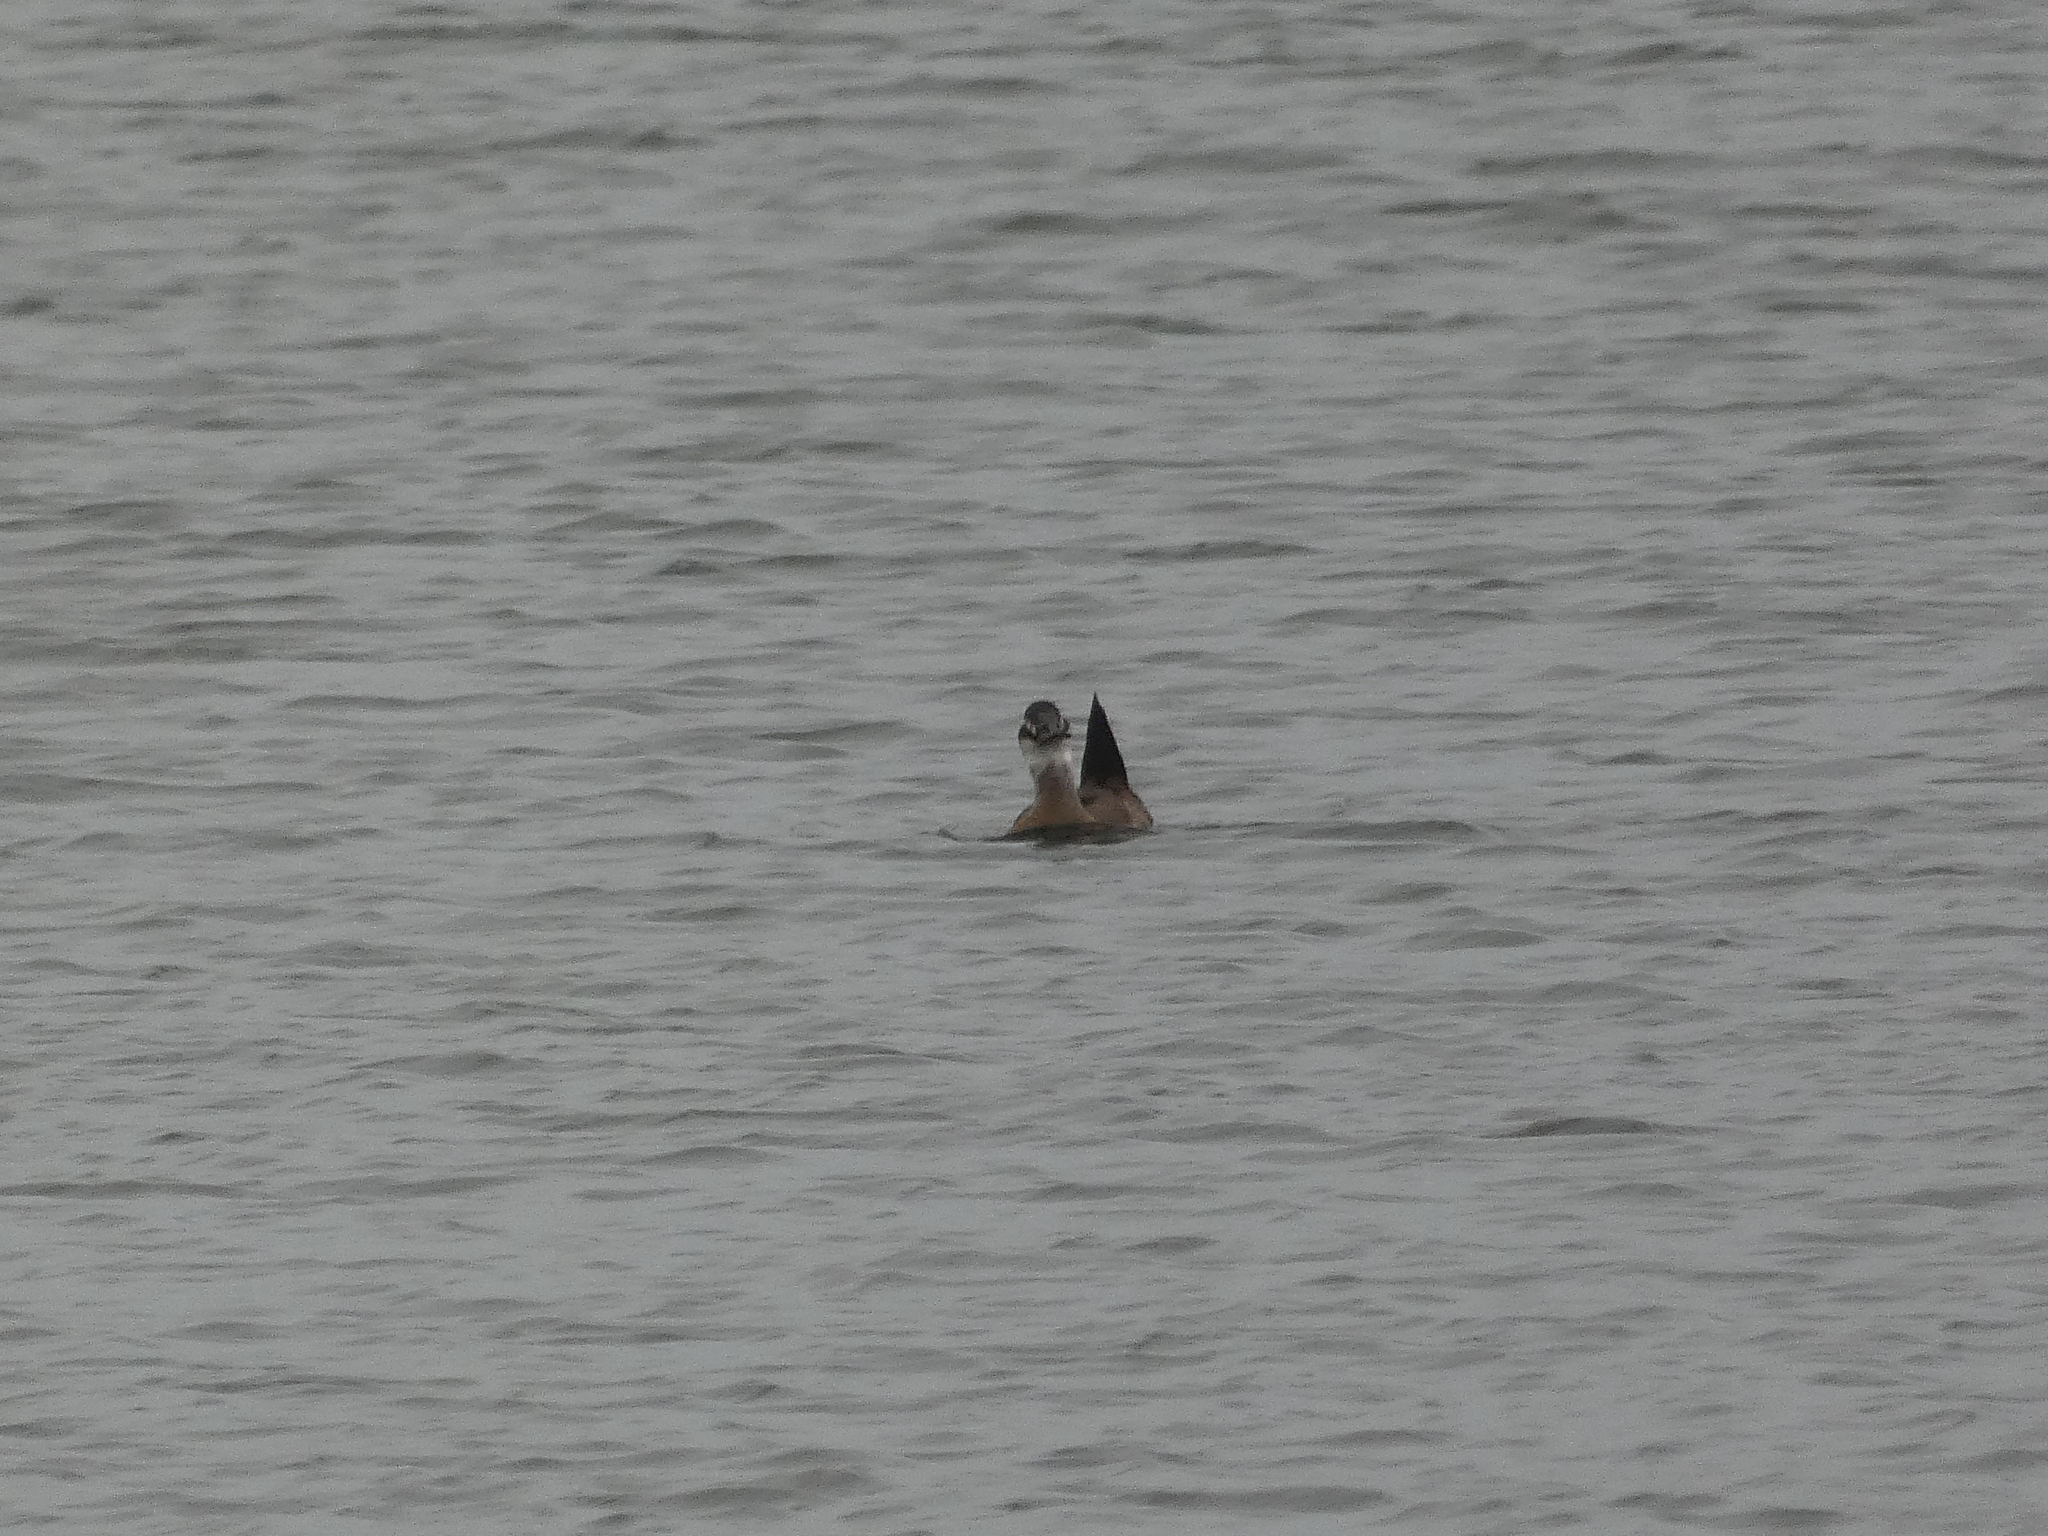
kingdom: Animalia
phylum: Chordata
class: Aves
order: Anseriformes
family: Anatidae
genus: Oxyura
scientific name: Oxyura leucocephala
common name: White-headed duck
